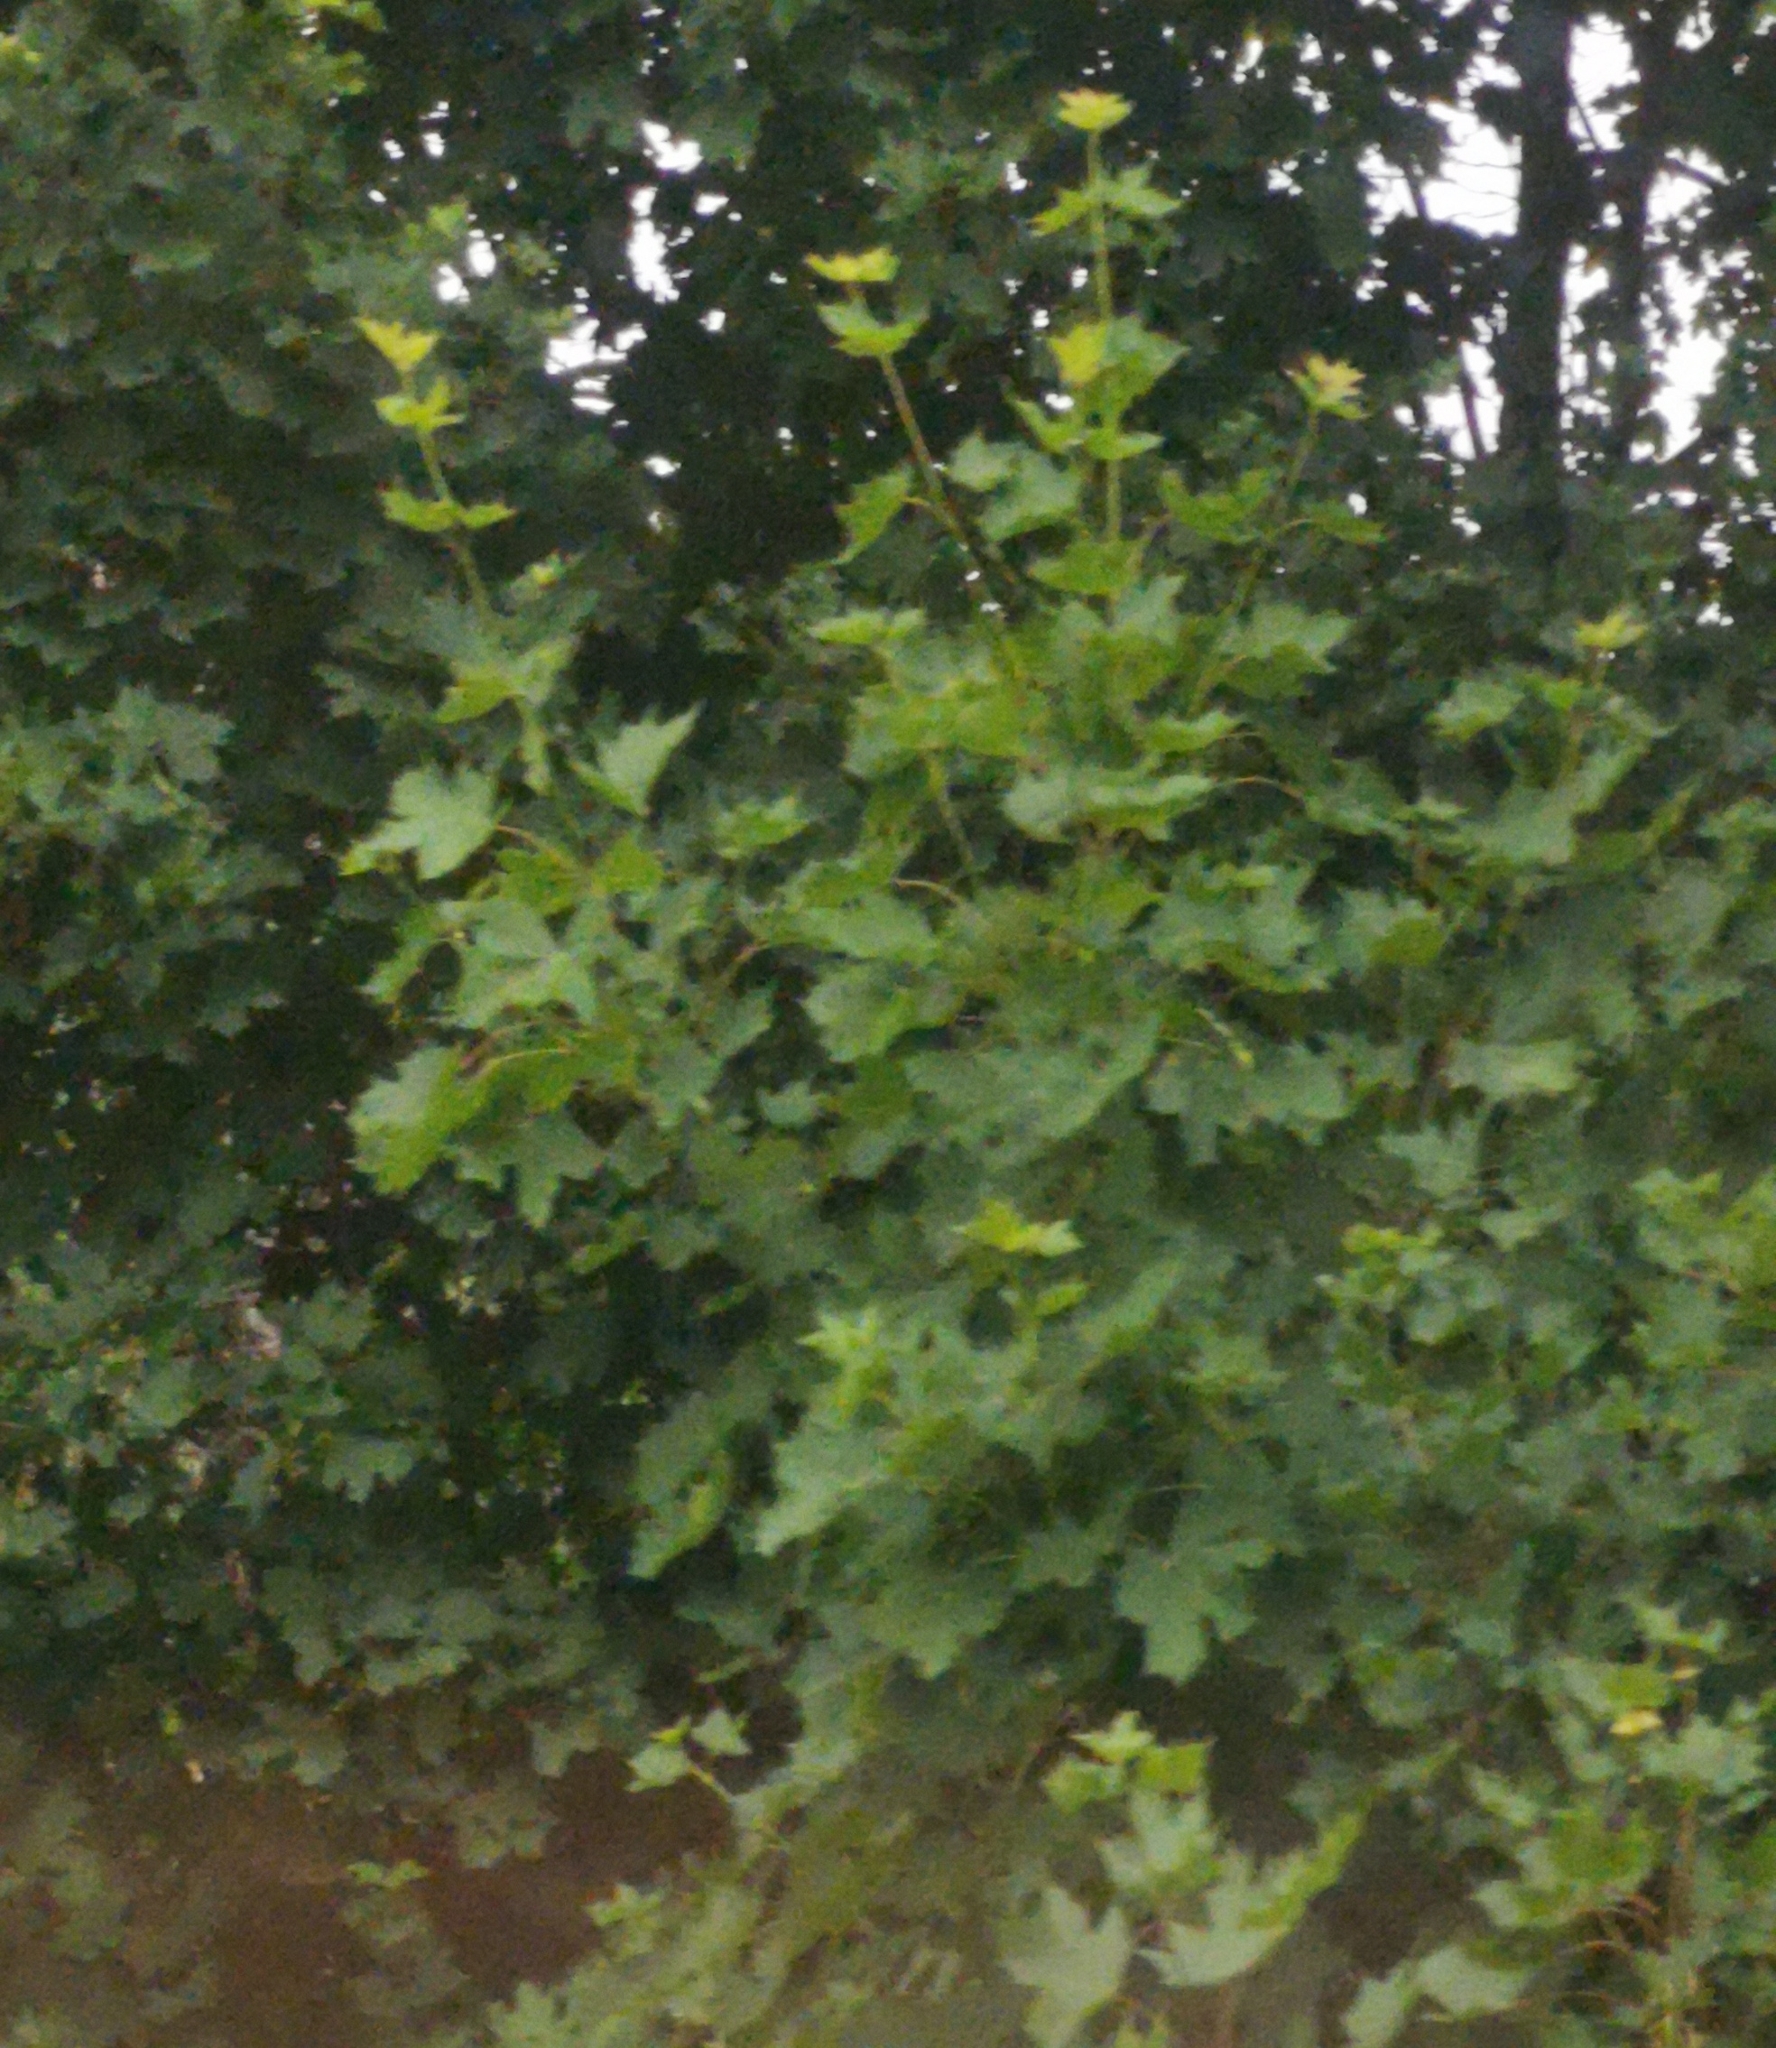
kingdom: Plantae
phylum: Tracheophyta
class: Magnoliopsida
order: Sapindales
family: Sapindaceae
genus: Acer
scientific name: Acer platanoides
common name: Norway maple
